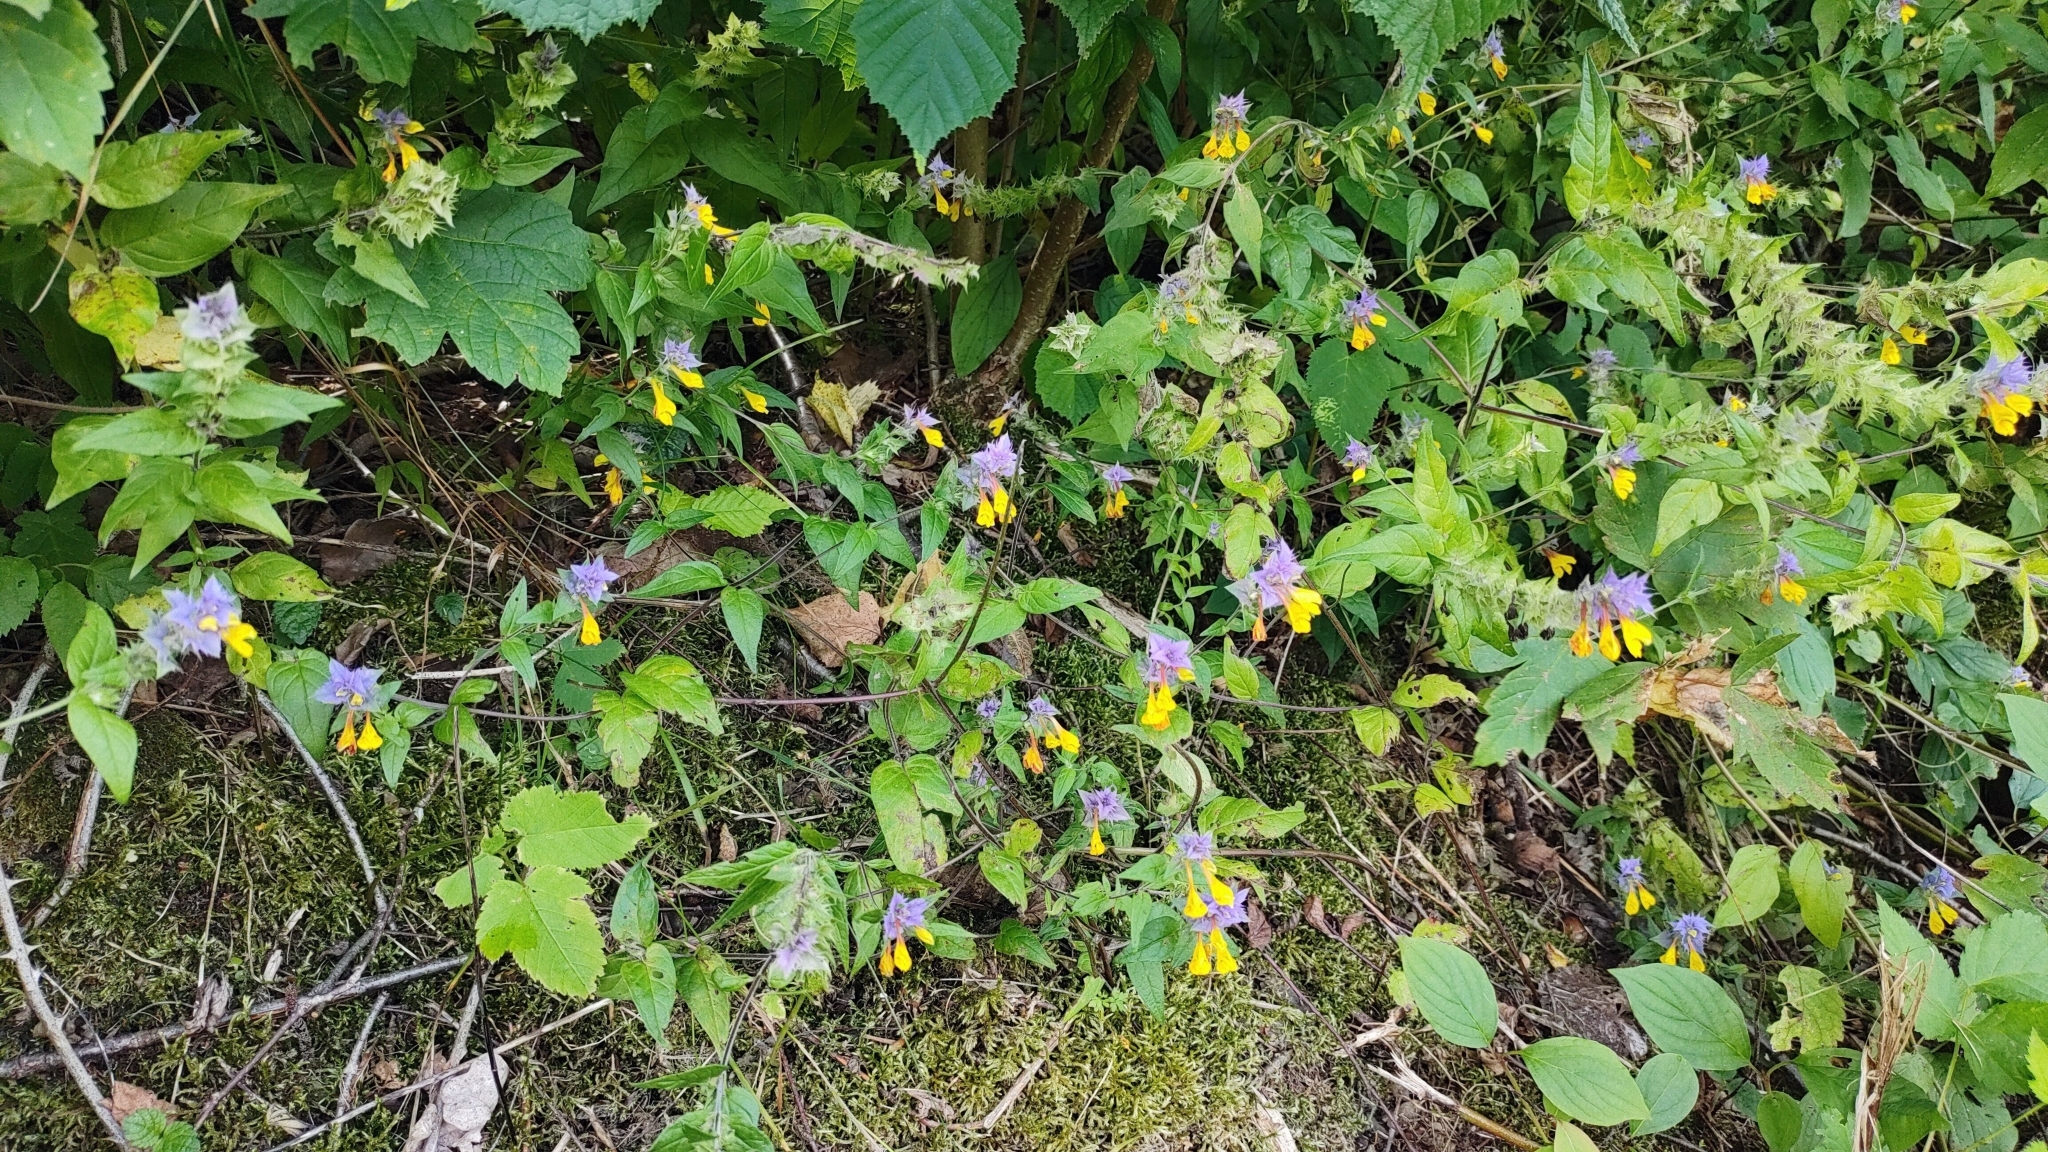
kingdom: Plantae
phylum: Tracheophyta
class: Magnoliopsida
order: Lamiales
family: Orobanchaceae
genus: Melampyrum
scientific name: Melampyrum nemorosum
